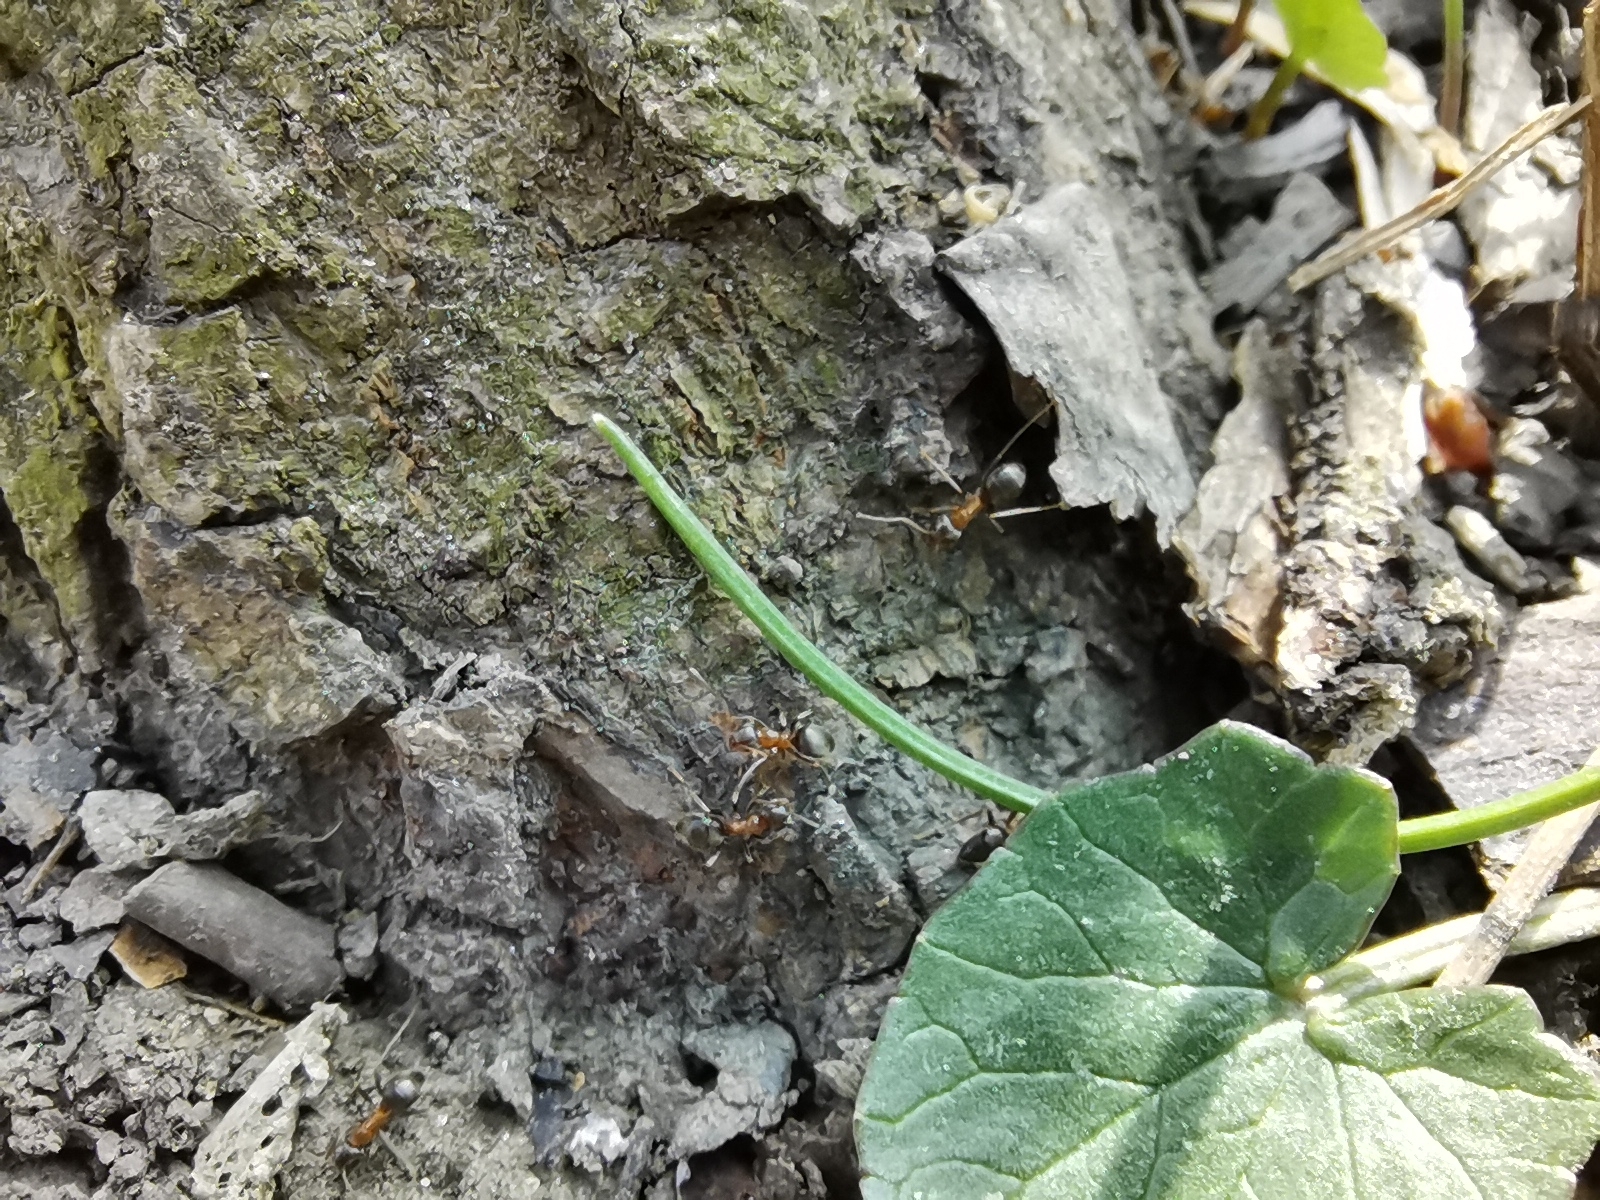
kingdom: Animalia
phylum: Arthropoda
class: Insecta
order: Hymenoptera
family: Formicidae
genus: Lasius
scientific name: Lasius emarginatus
